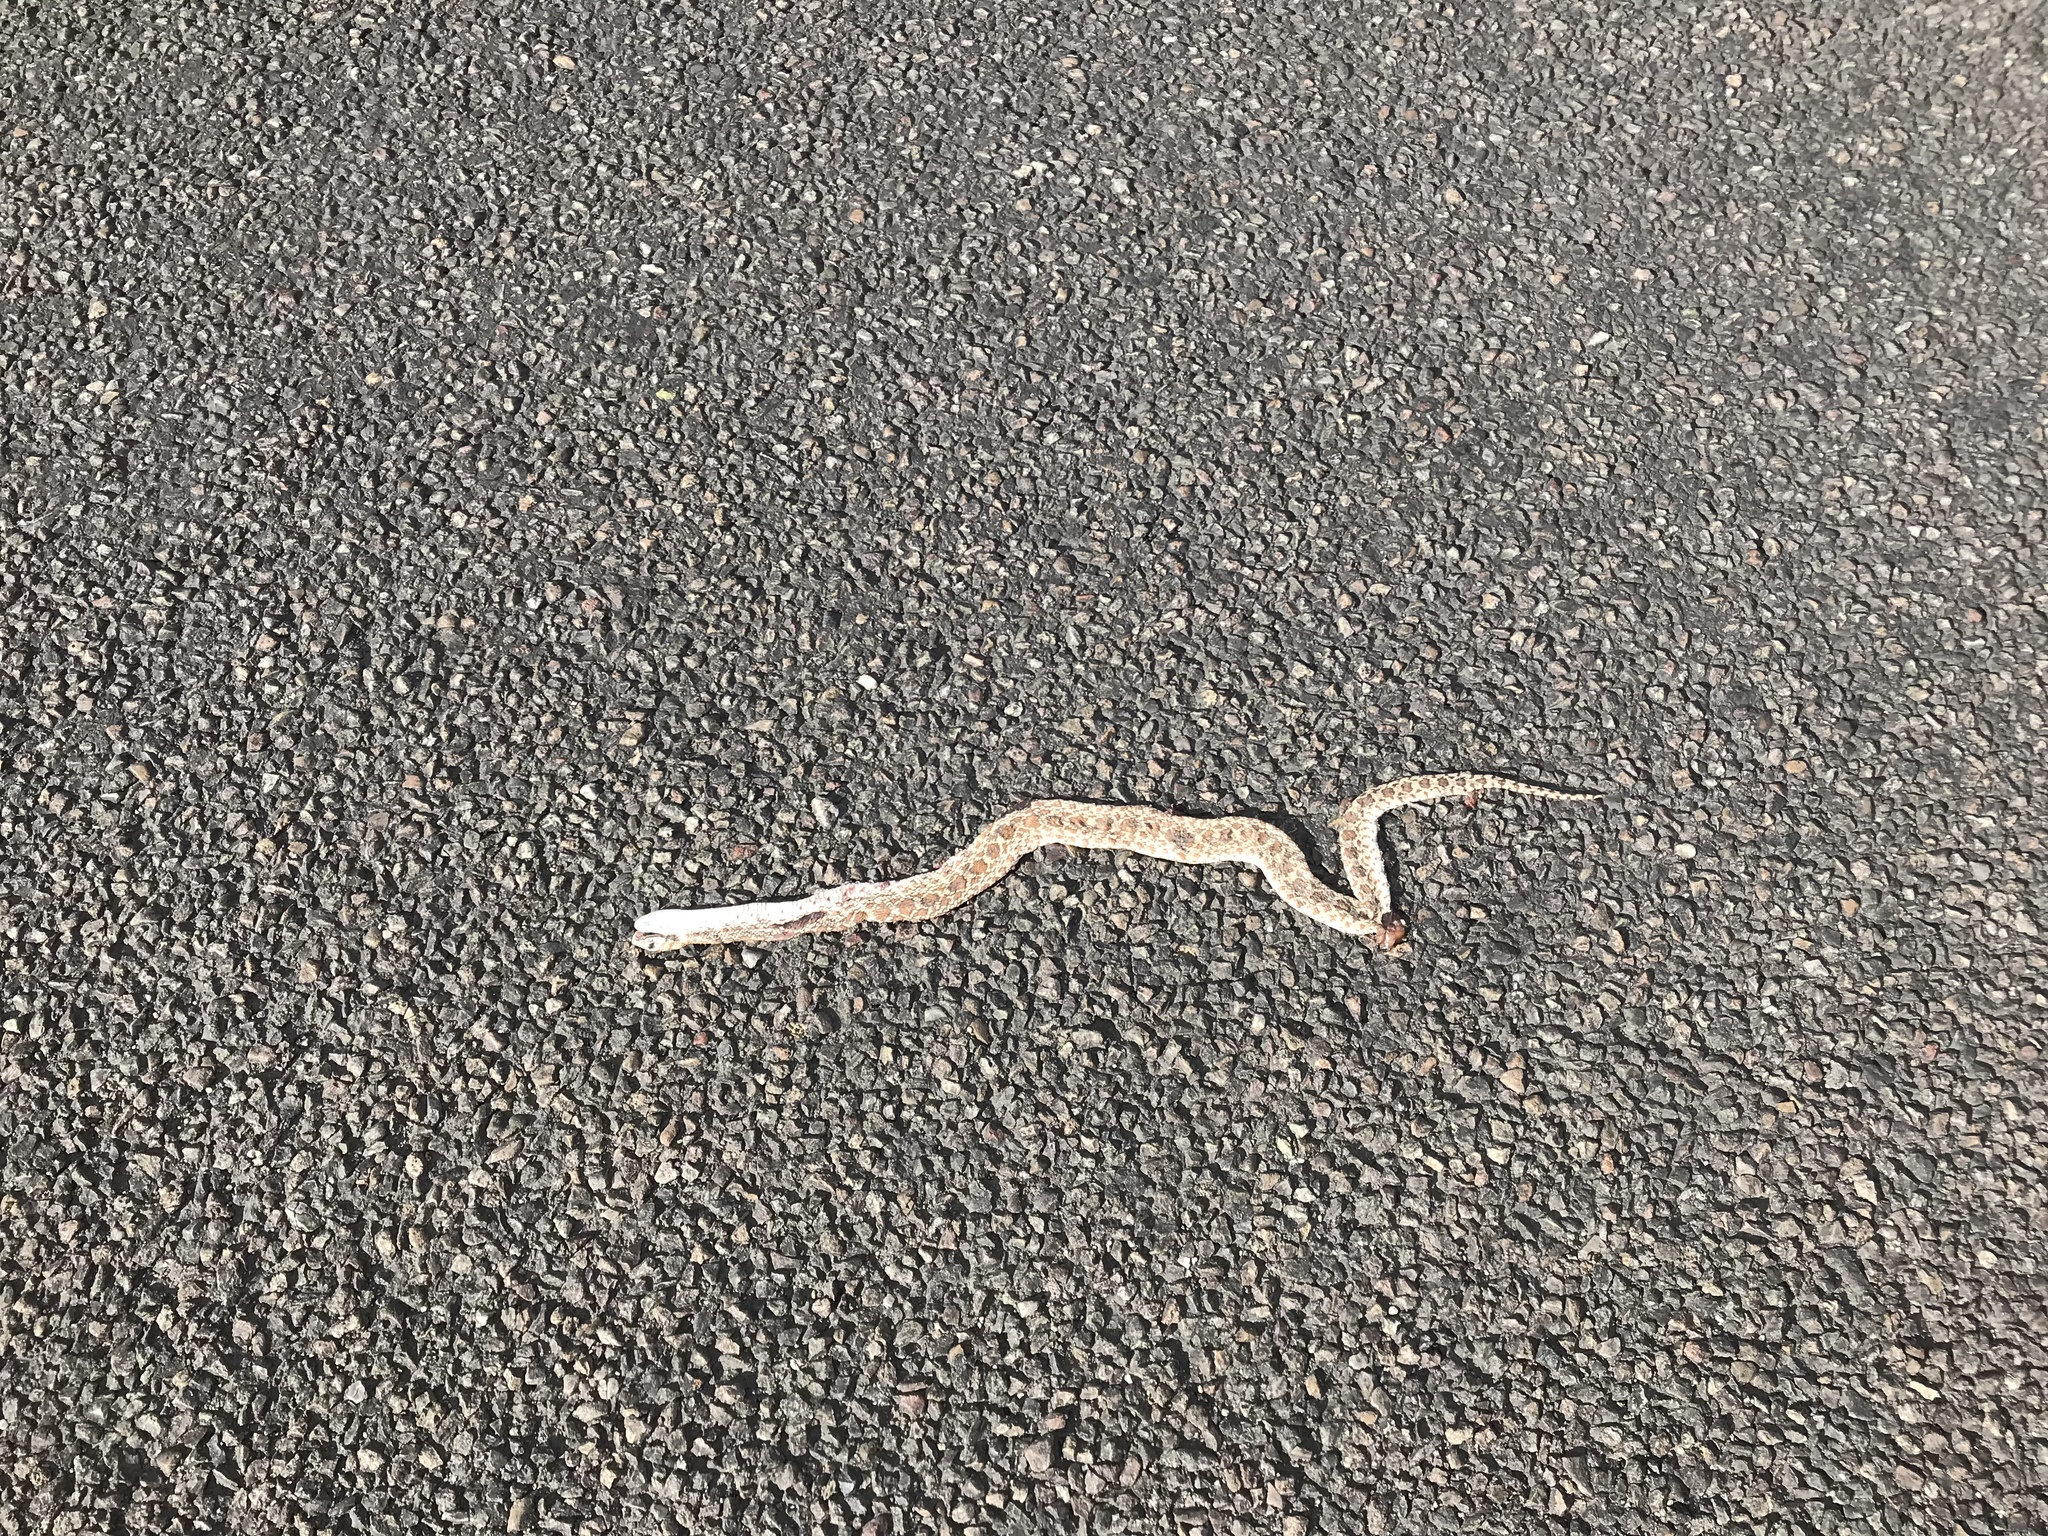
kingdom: Animalia
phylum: Chordata
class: Squamata
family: Colubridae
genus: Pituophis
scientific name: Pituophis catenifer
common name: Gopher snake
